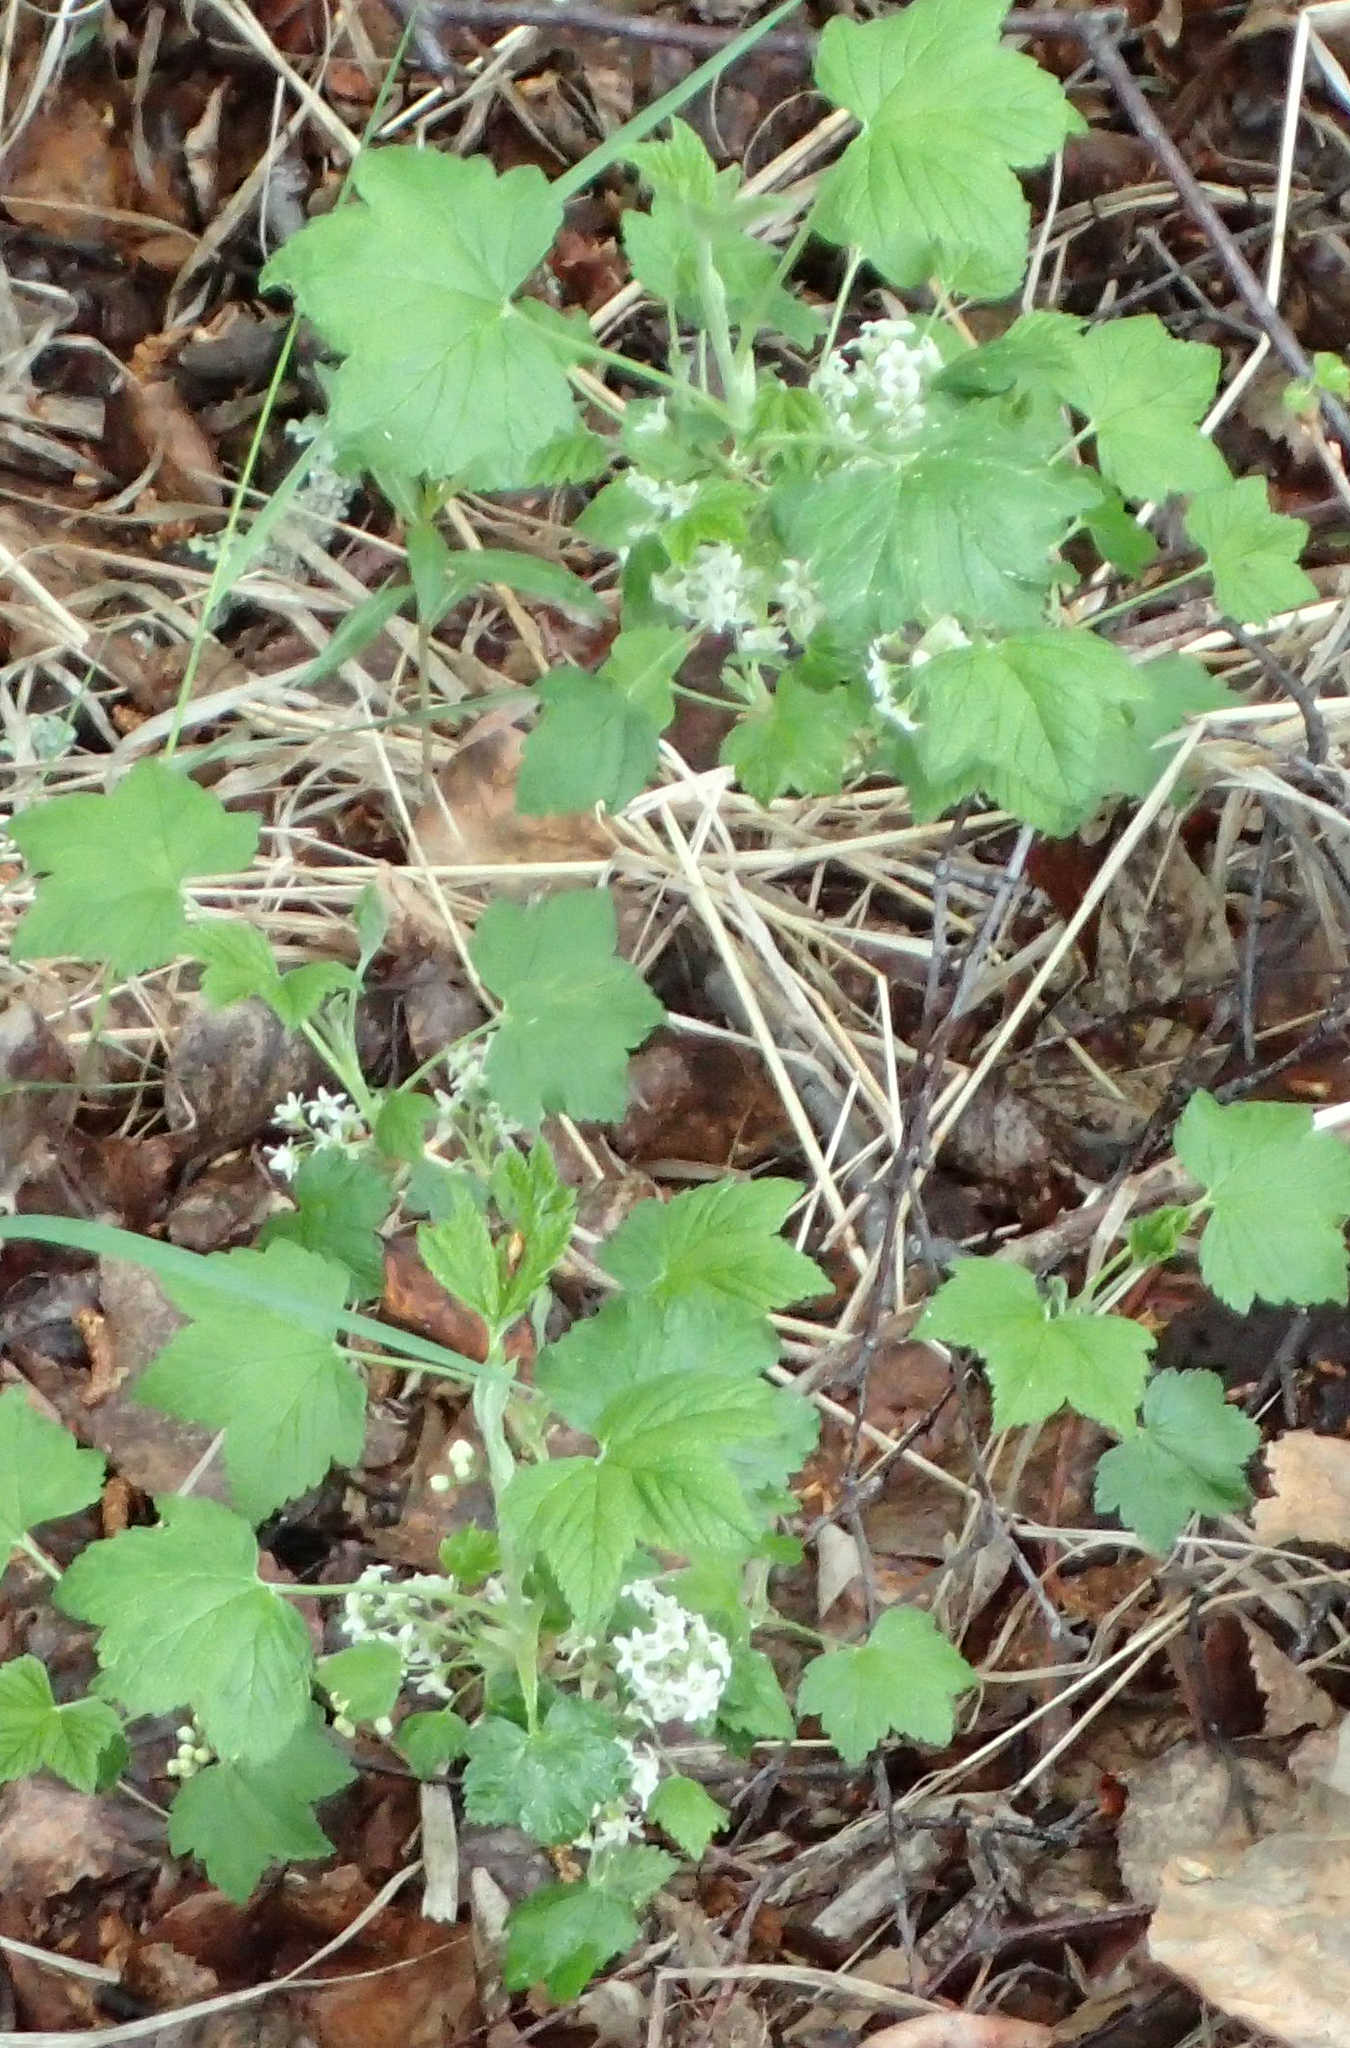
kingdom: Plantae
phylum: Tracheophyta
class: Magnoliopsida
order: Saxifragales
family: Grossulariaceae
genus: Ribes
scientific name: Ribes hudsonianum
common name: Northern black currant
